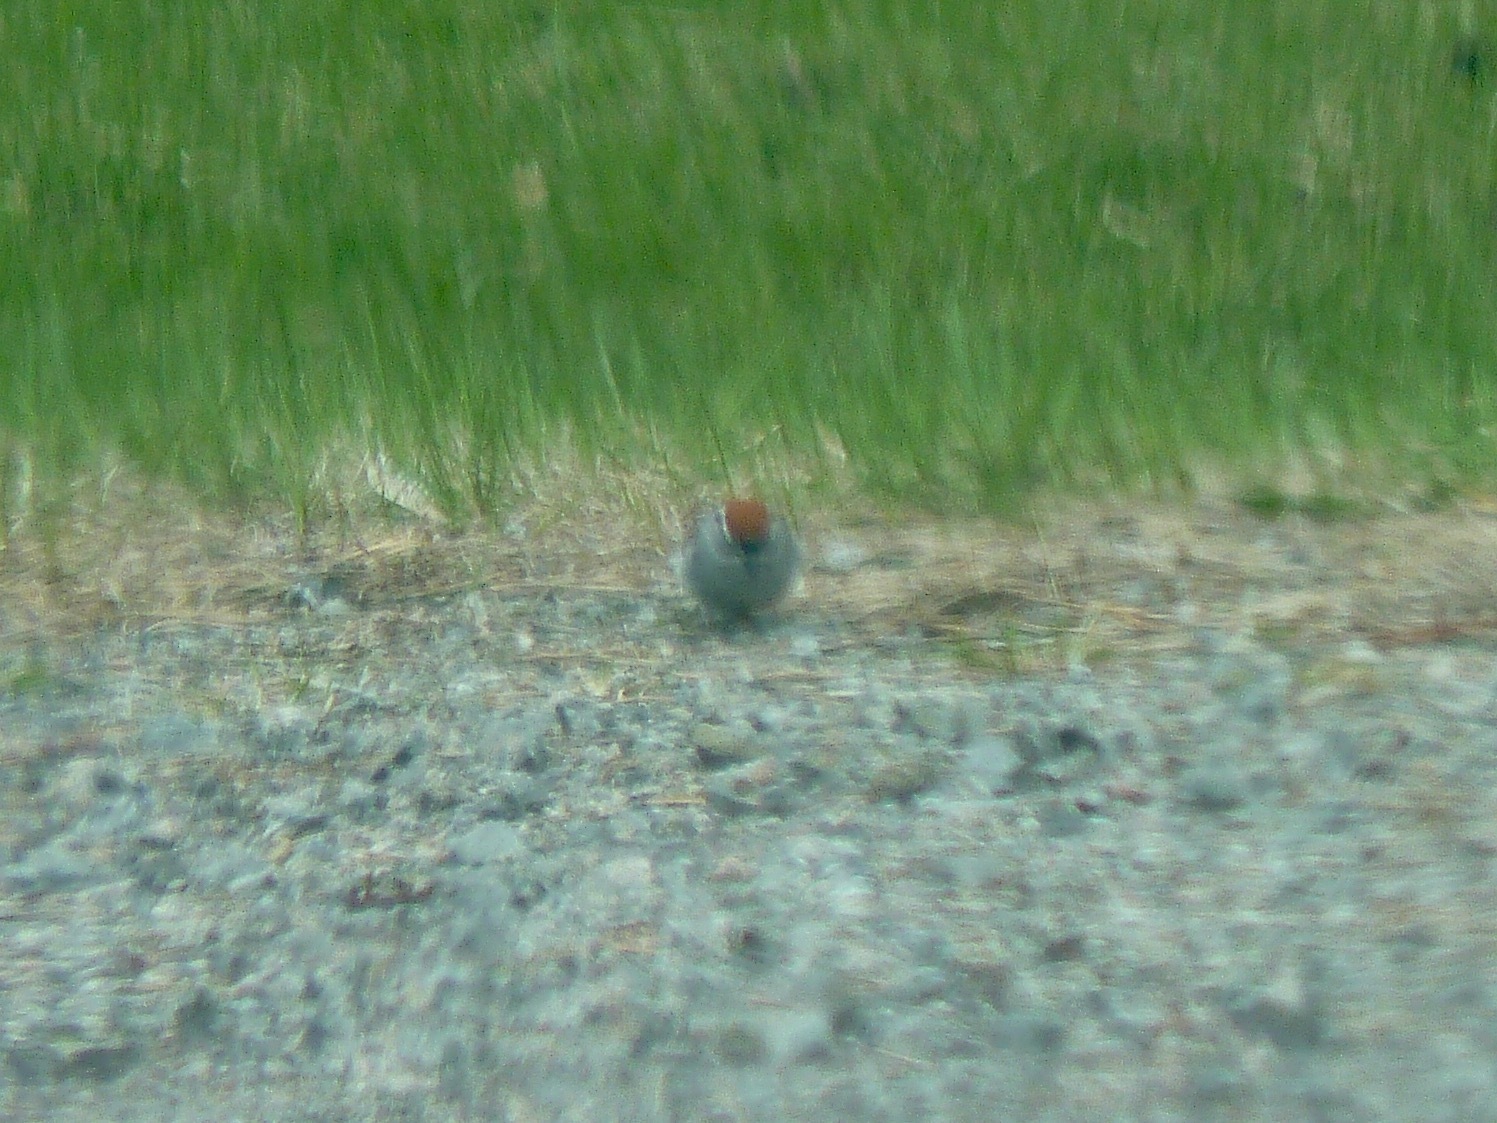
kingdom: Animalia
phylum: Chordata
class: Aves
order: Passeriformes
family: Passerellidae
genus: Spizella
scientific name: Spizella passerina
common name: Chipping sparrow
